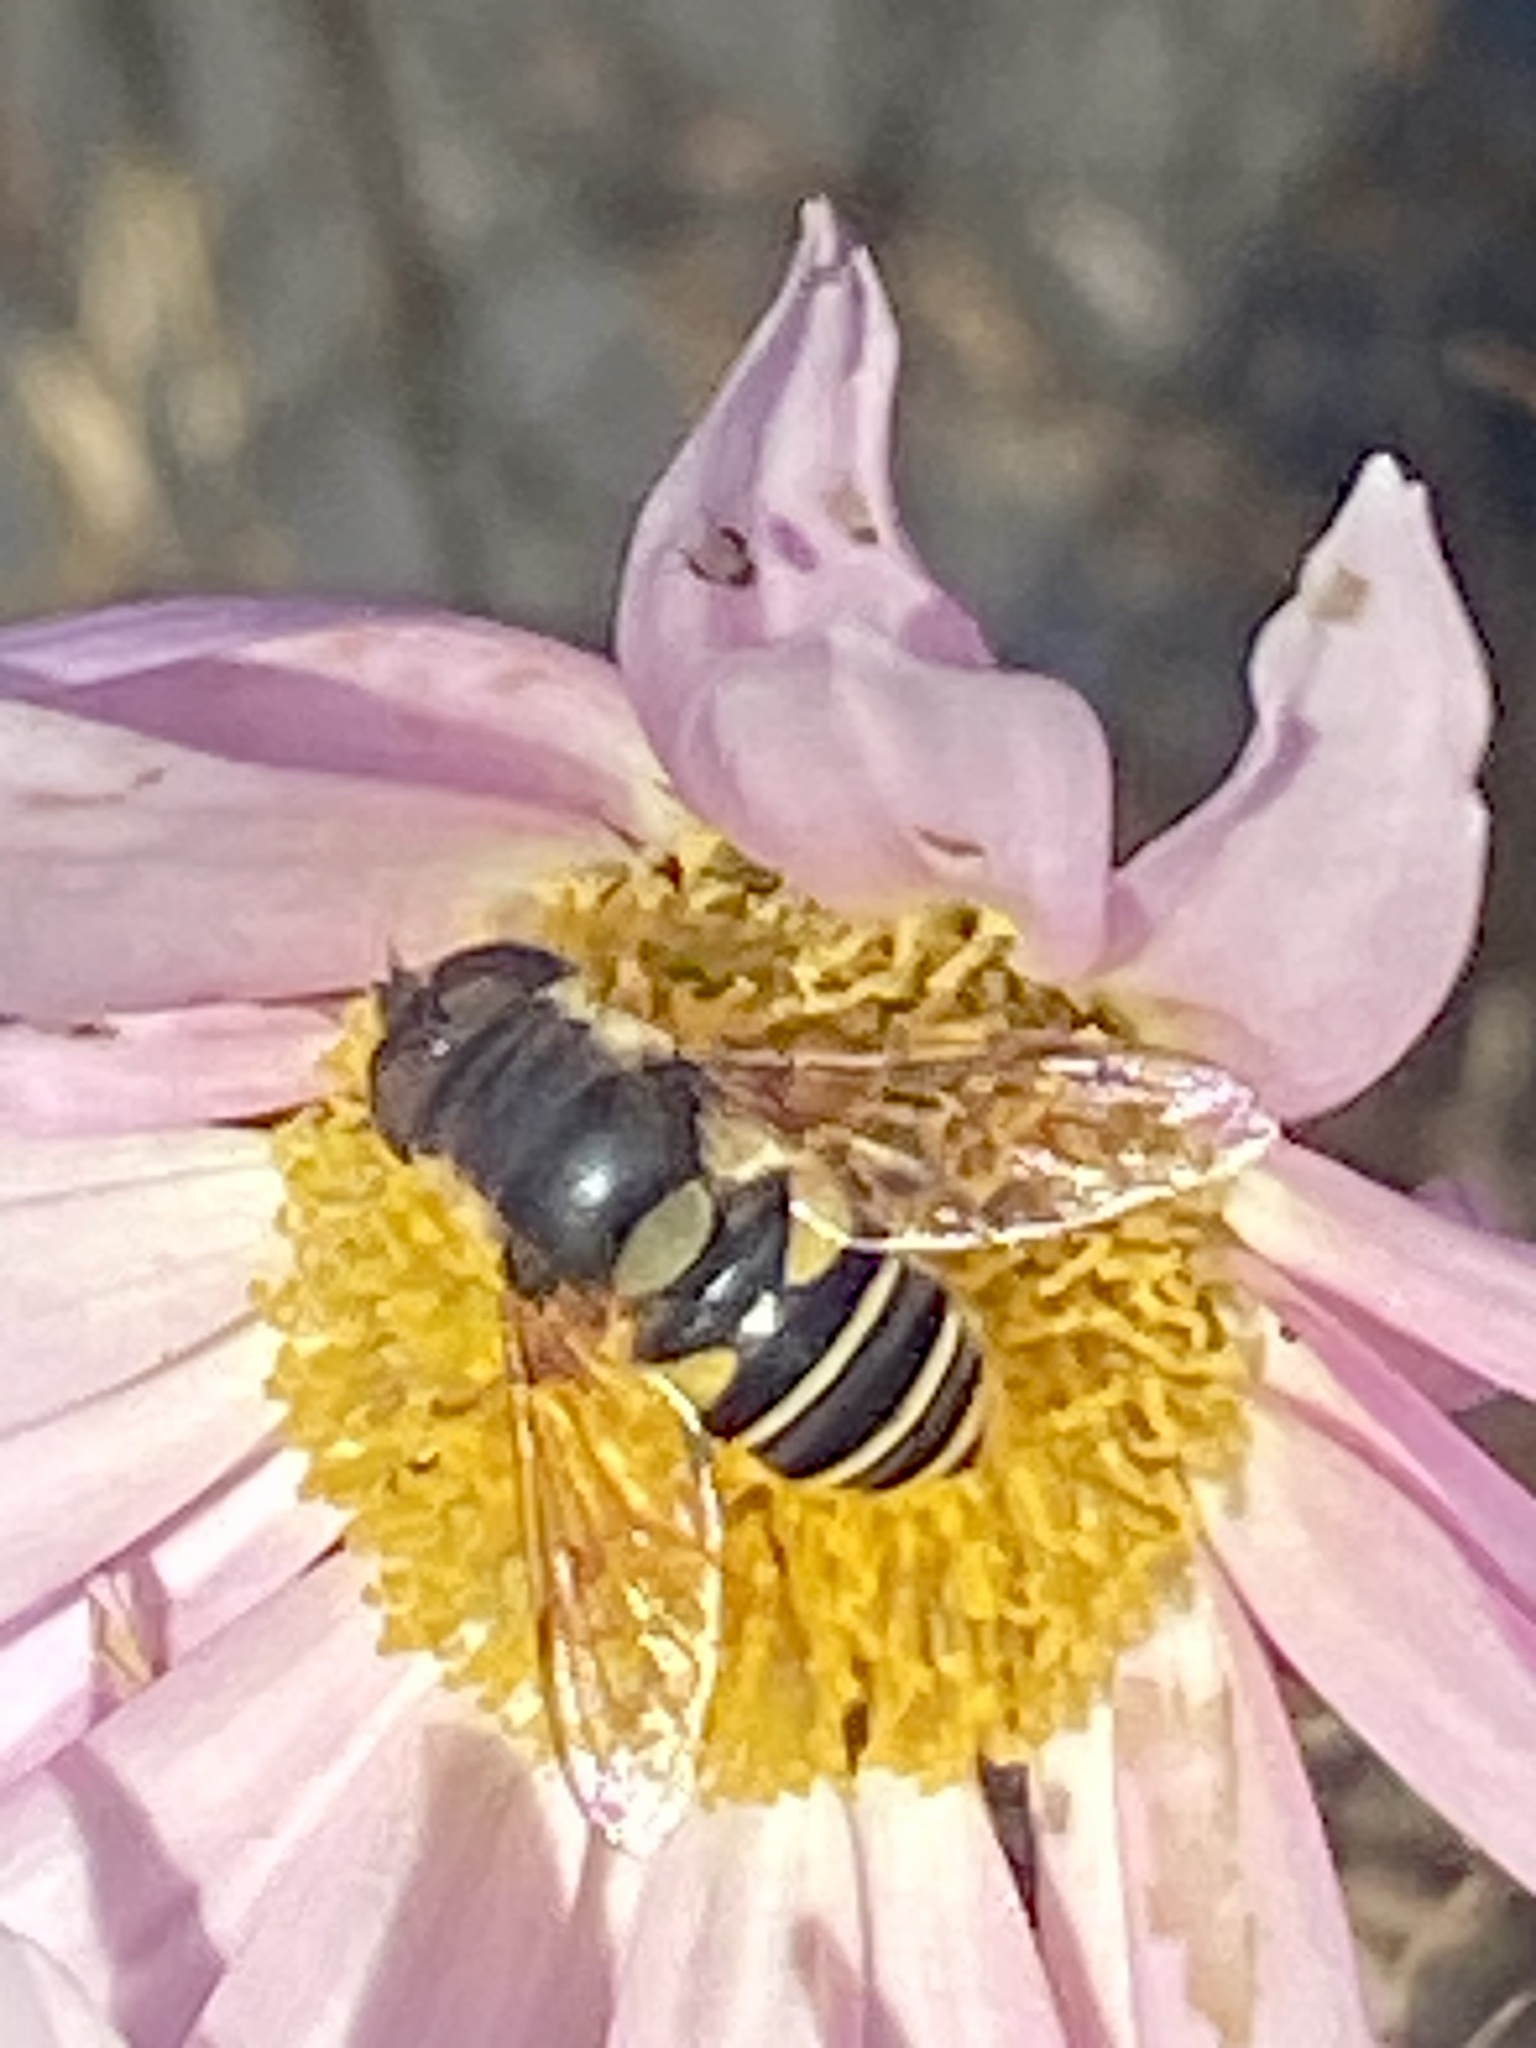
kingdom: Animalia
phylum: Arthropoda
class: Insecta
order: Diptera
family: Syrphidae
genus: Eristalis
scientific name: Eristalis transversa
